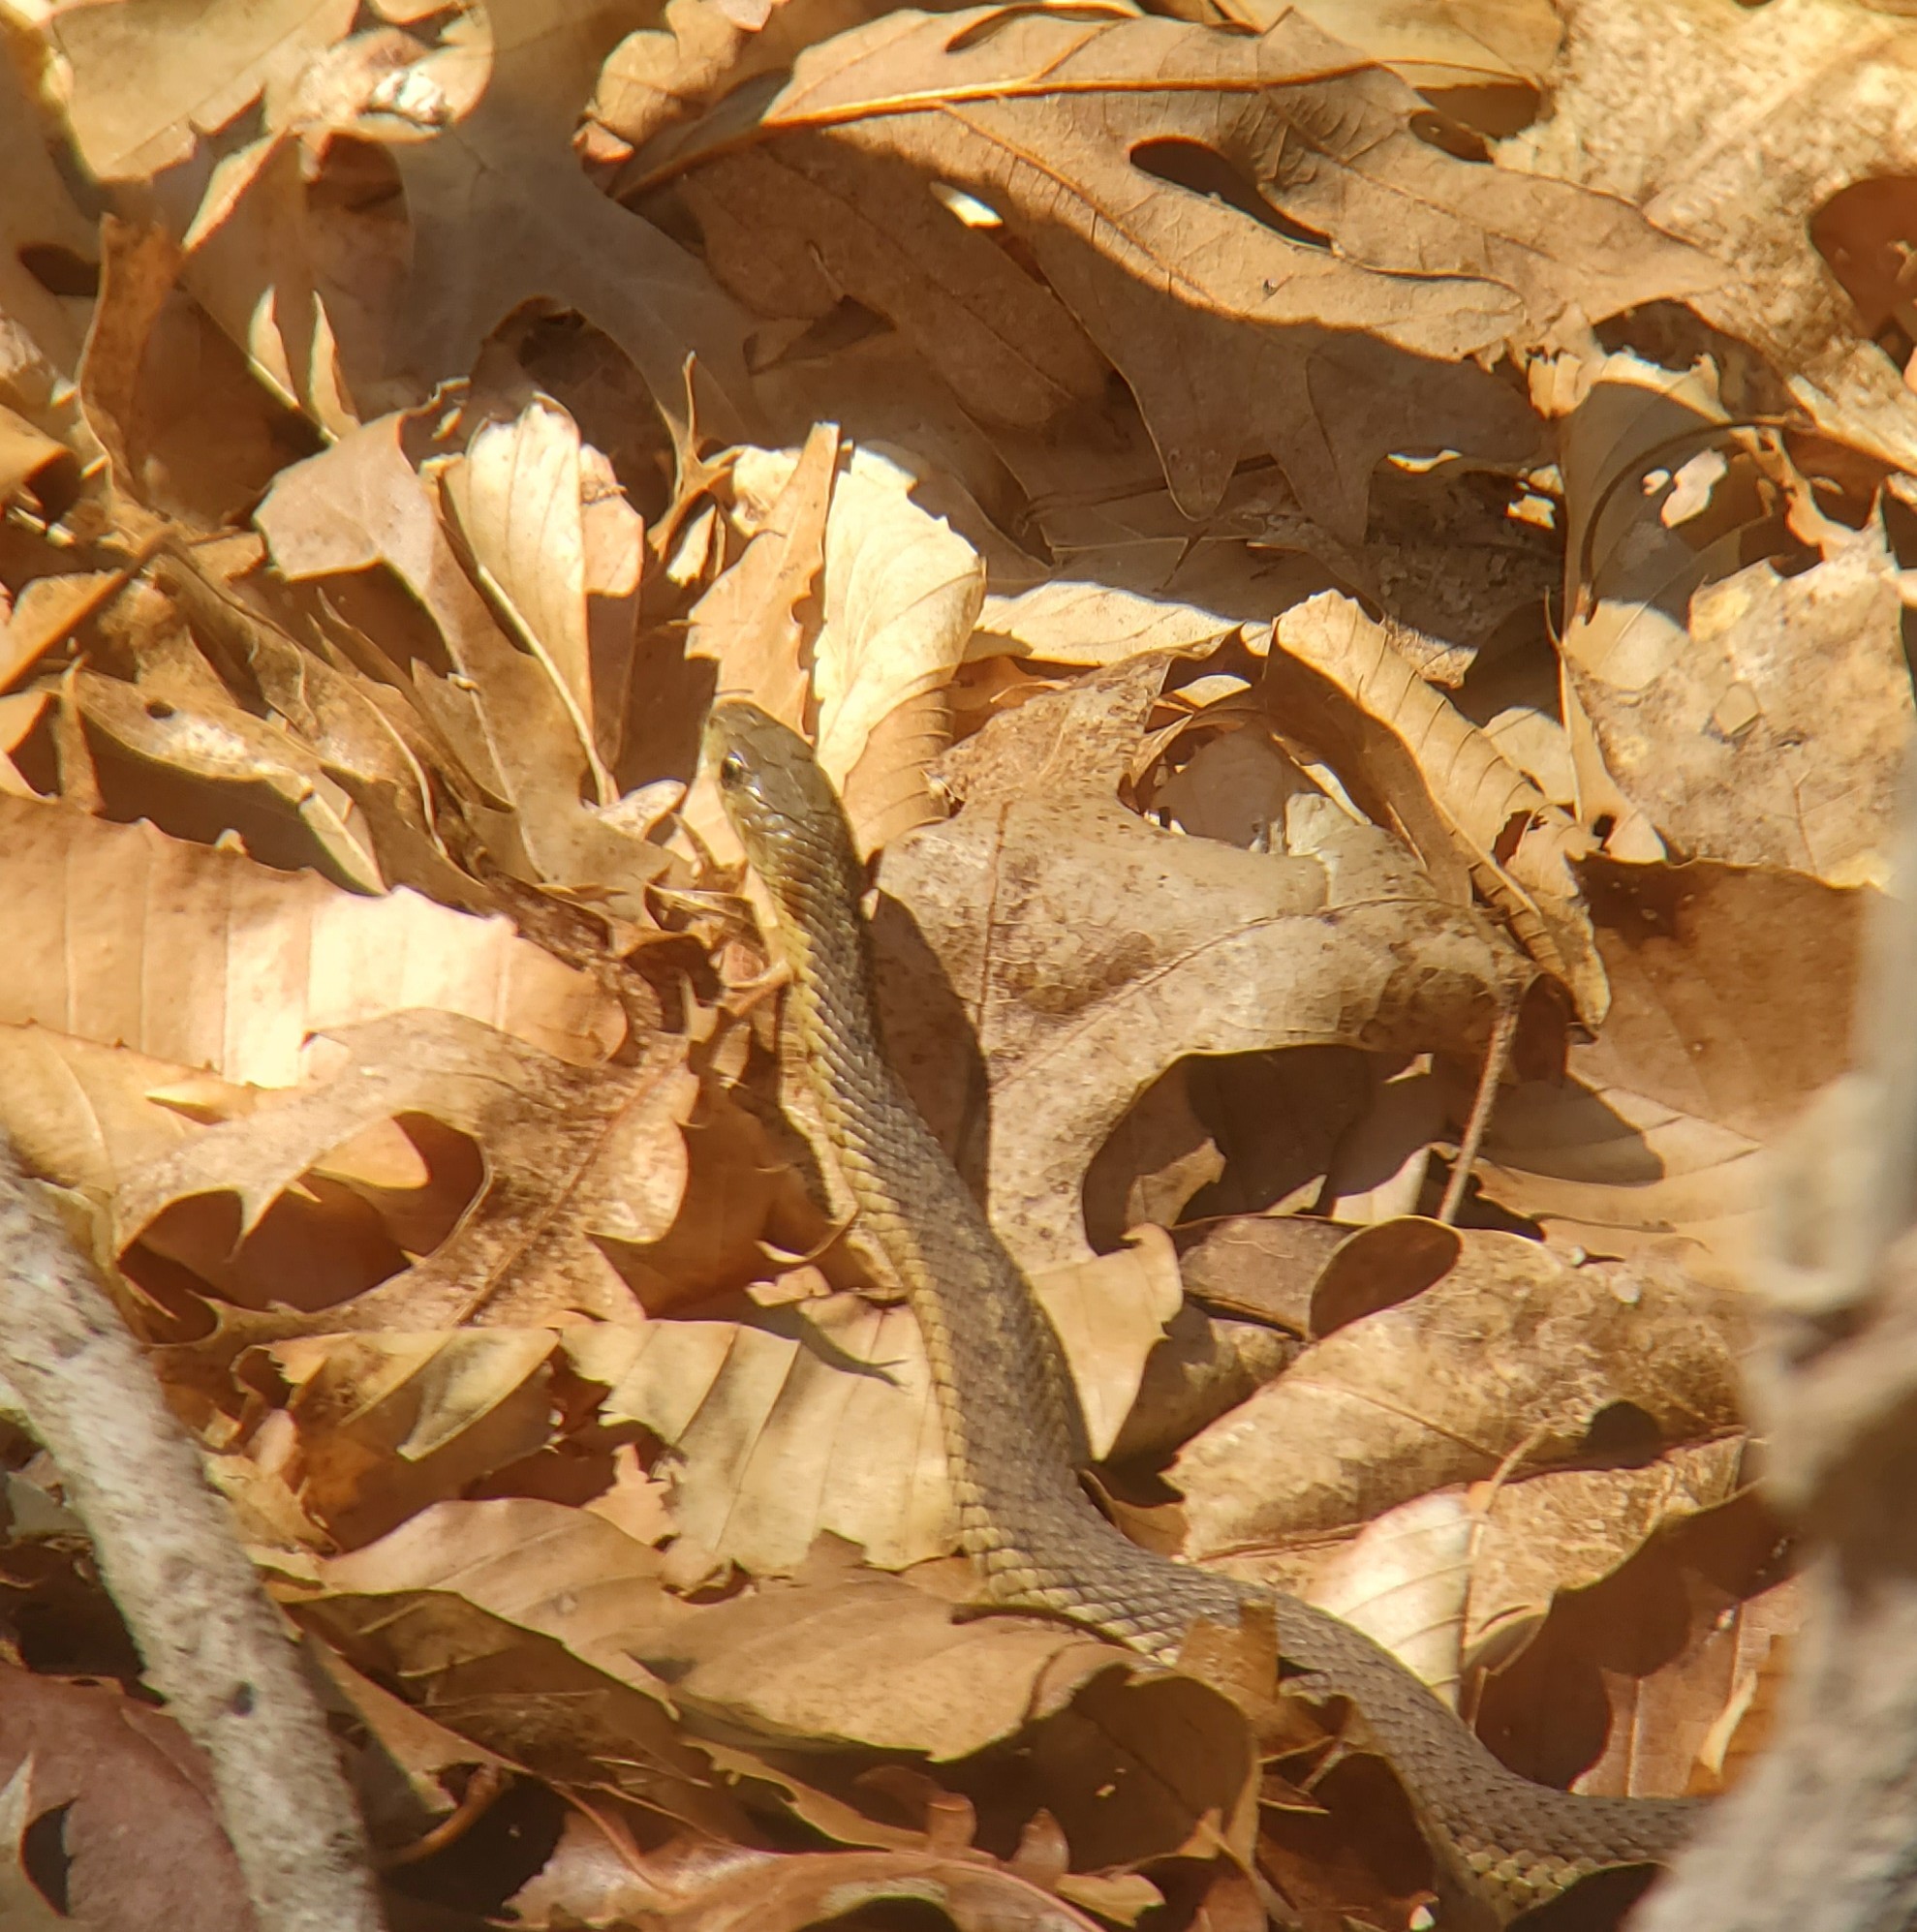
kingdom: Animalia
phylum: Chordata
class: Squamata
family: Colubridae
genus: Thamnophis
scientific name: Thamnophis sirtalis
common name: Common garter snake
